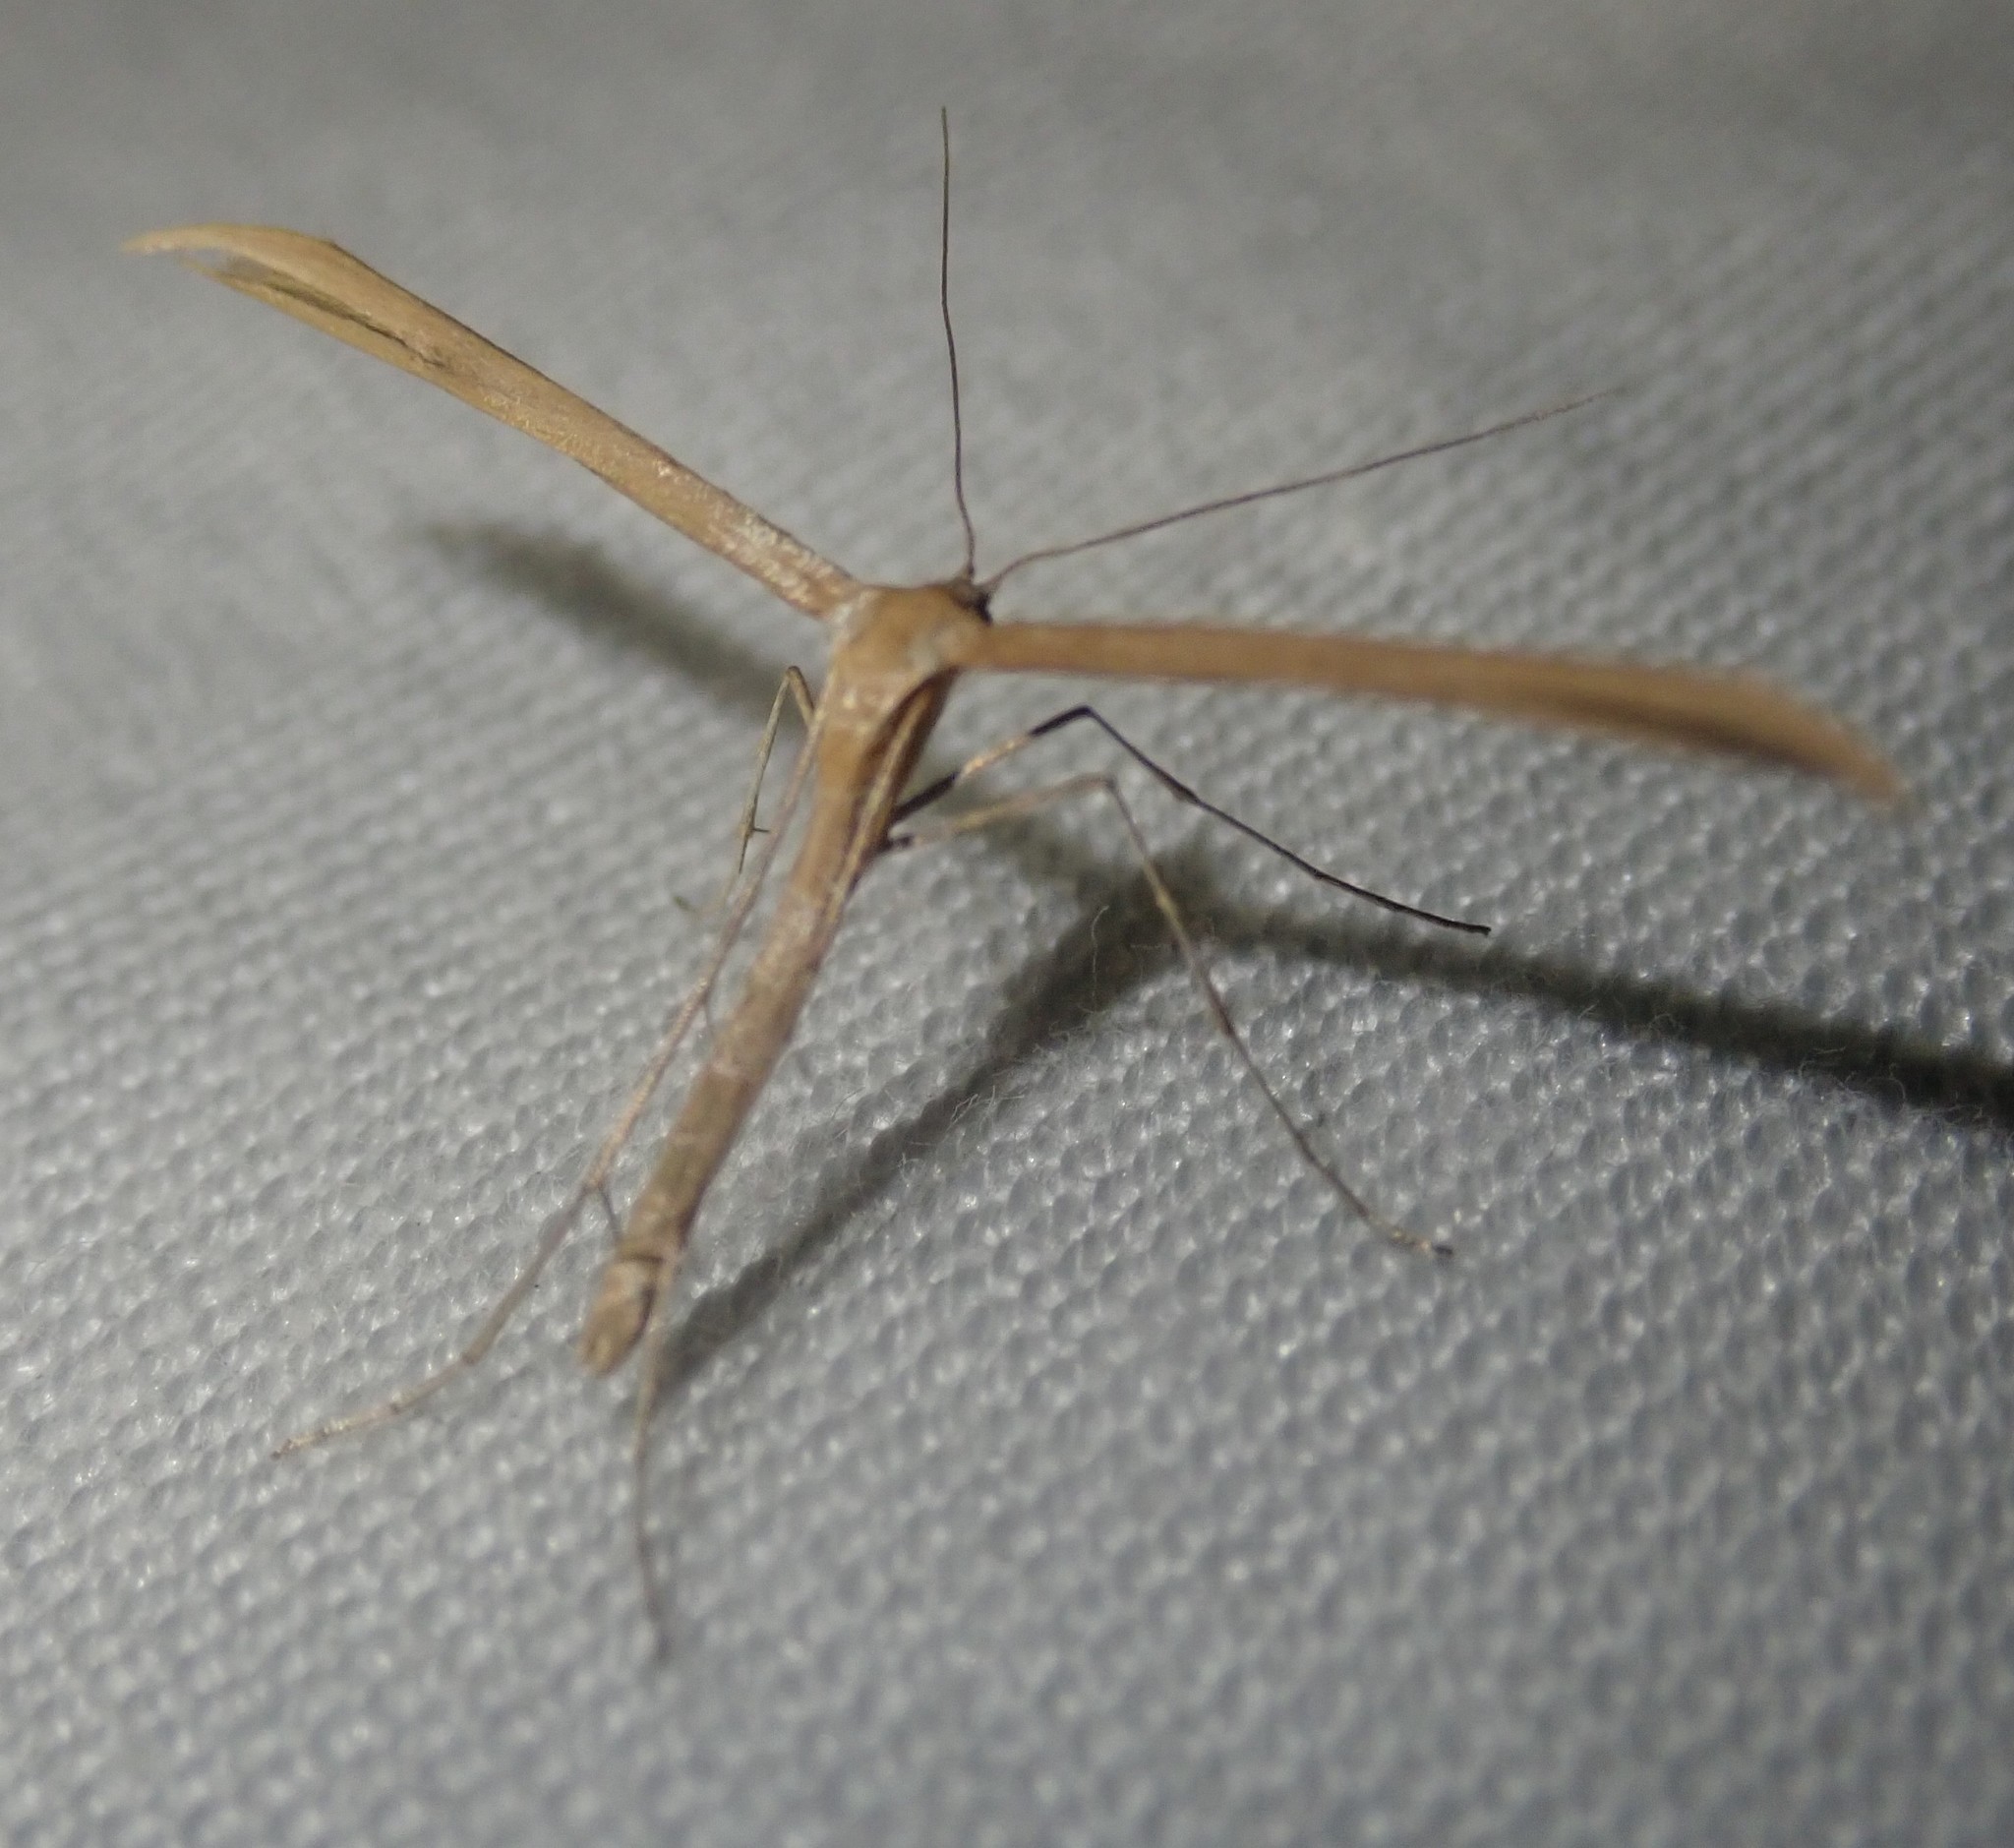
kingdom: Animalia
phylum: Arthropoda
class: Insecta
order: Lepidoptera
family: Pterophoridae
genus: Emmelina
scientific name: Emmelina monodactyla
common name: Common plume
